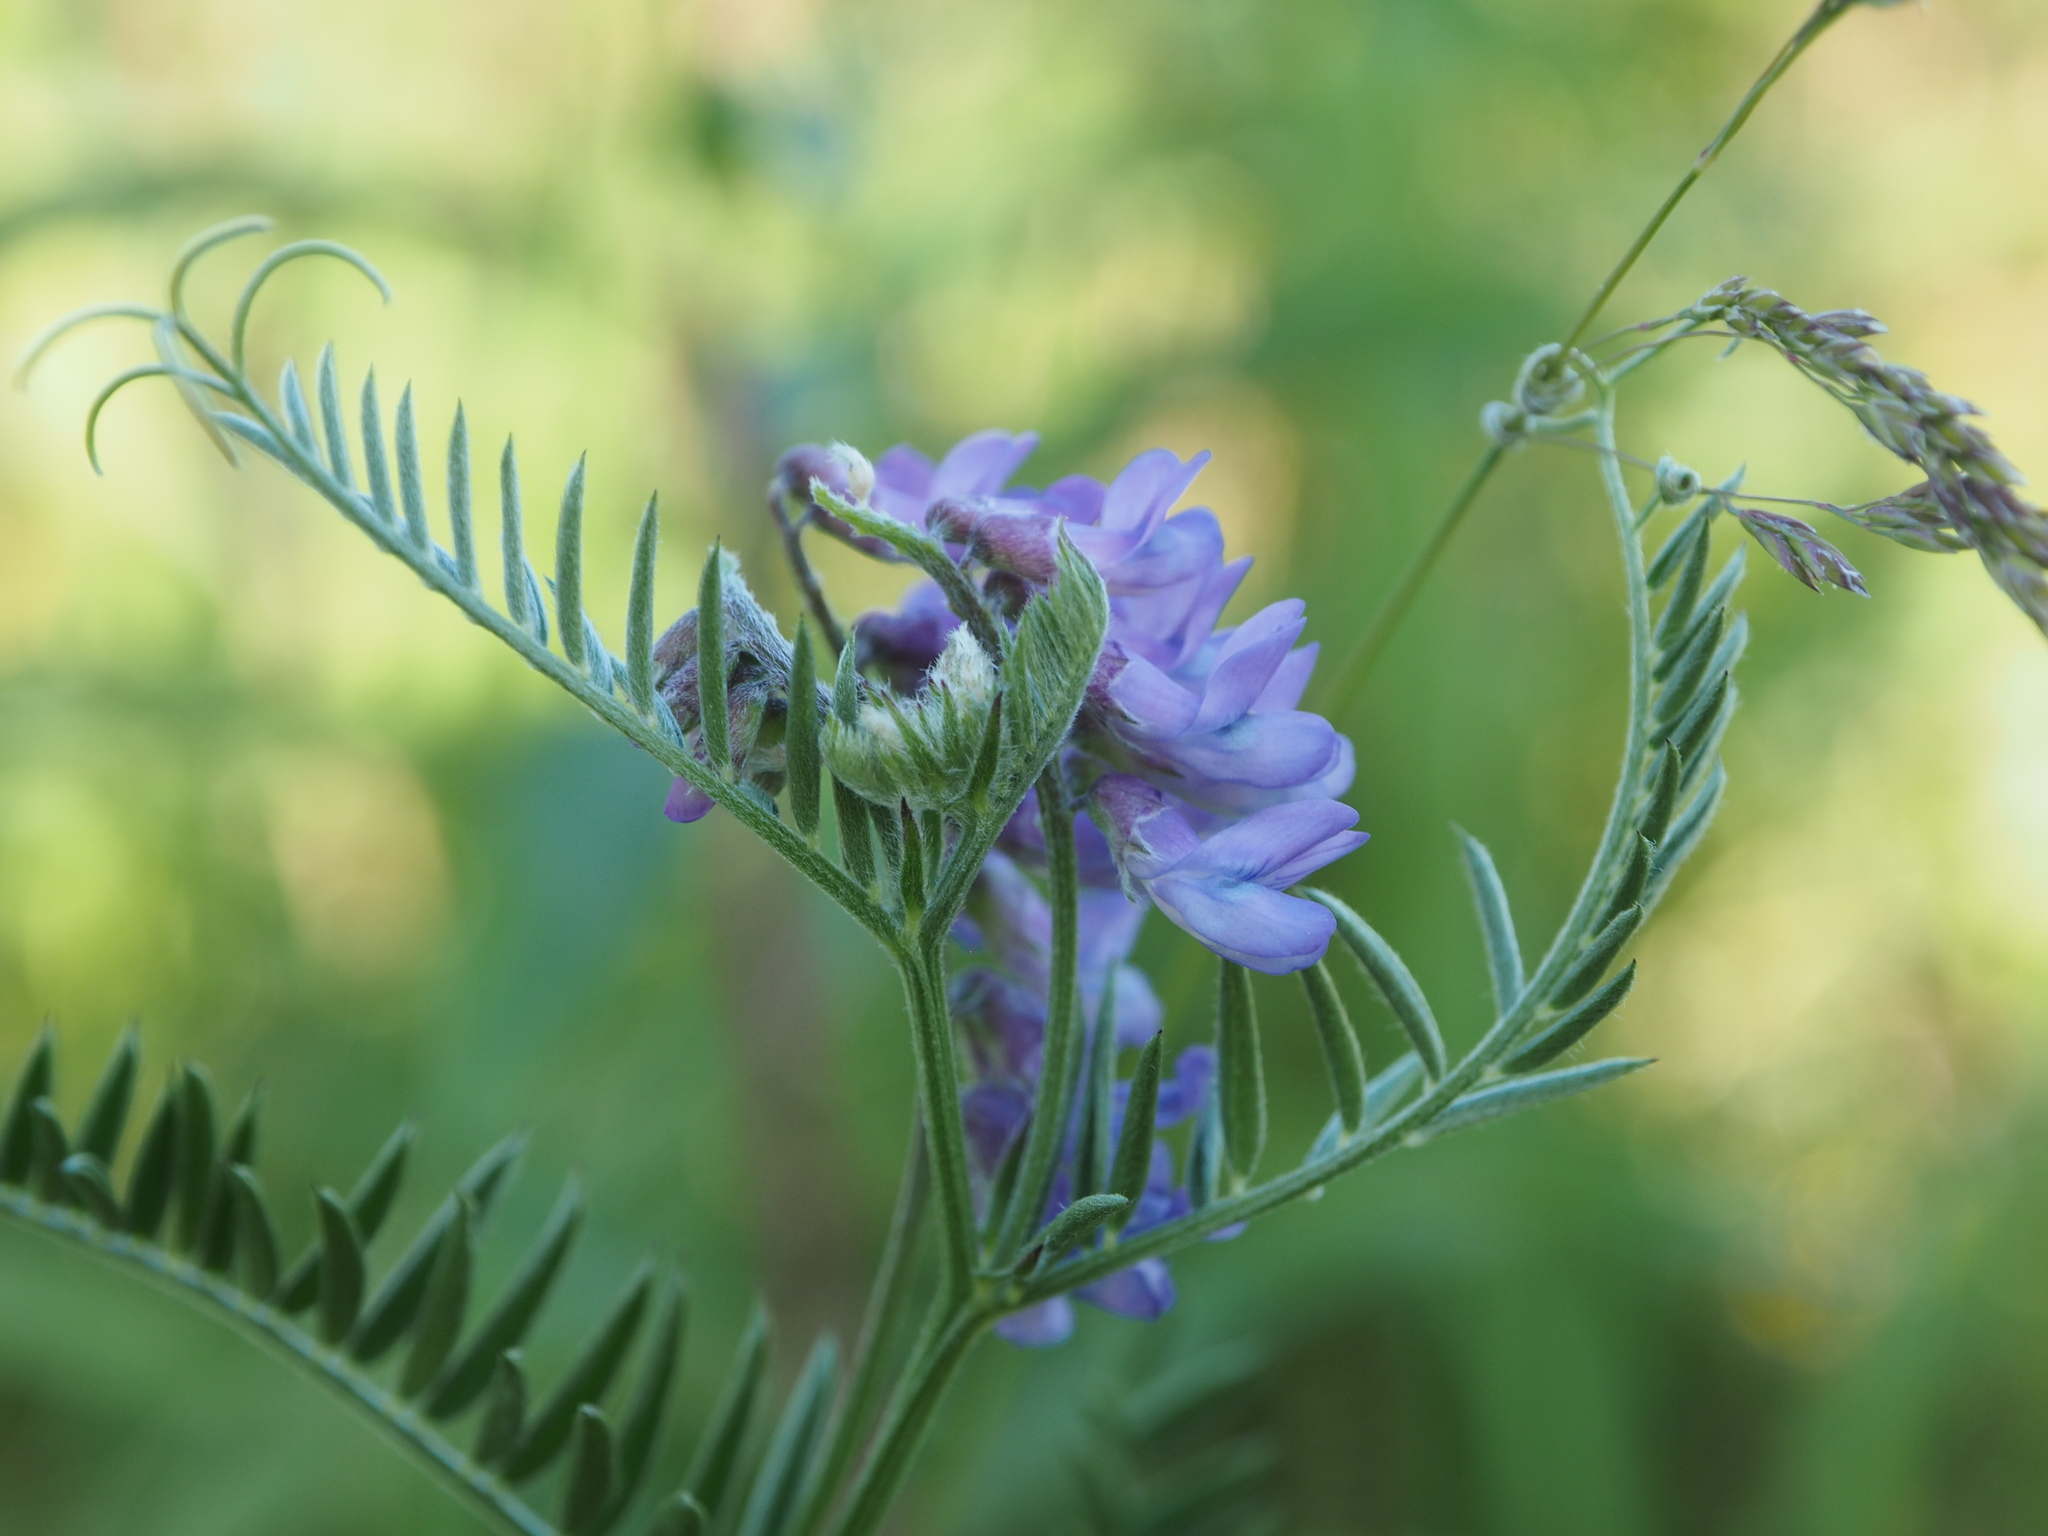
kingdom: Plantae
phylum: Tracheophyta
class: Magnoliopsida
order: Fabales
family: Fabaceae
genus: Vicia
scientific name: Vicia cracca
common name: Bird vetch
